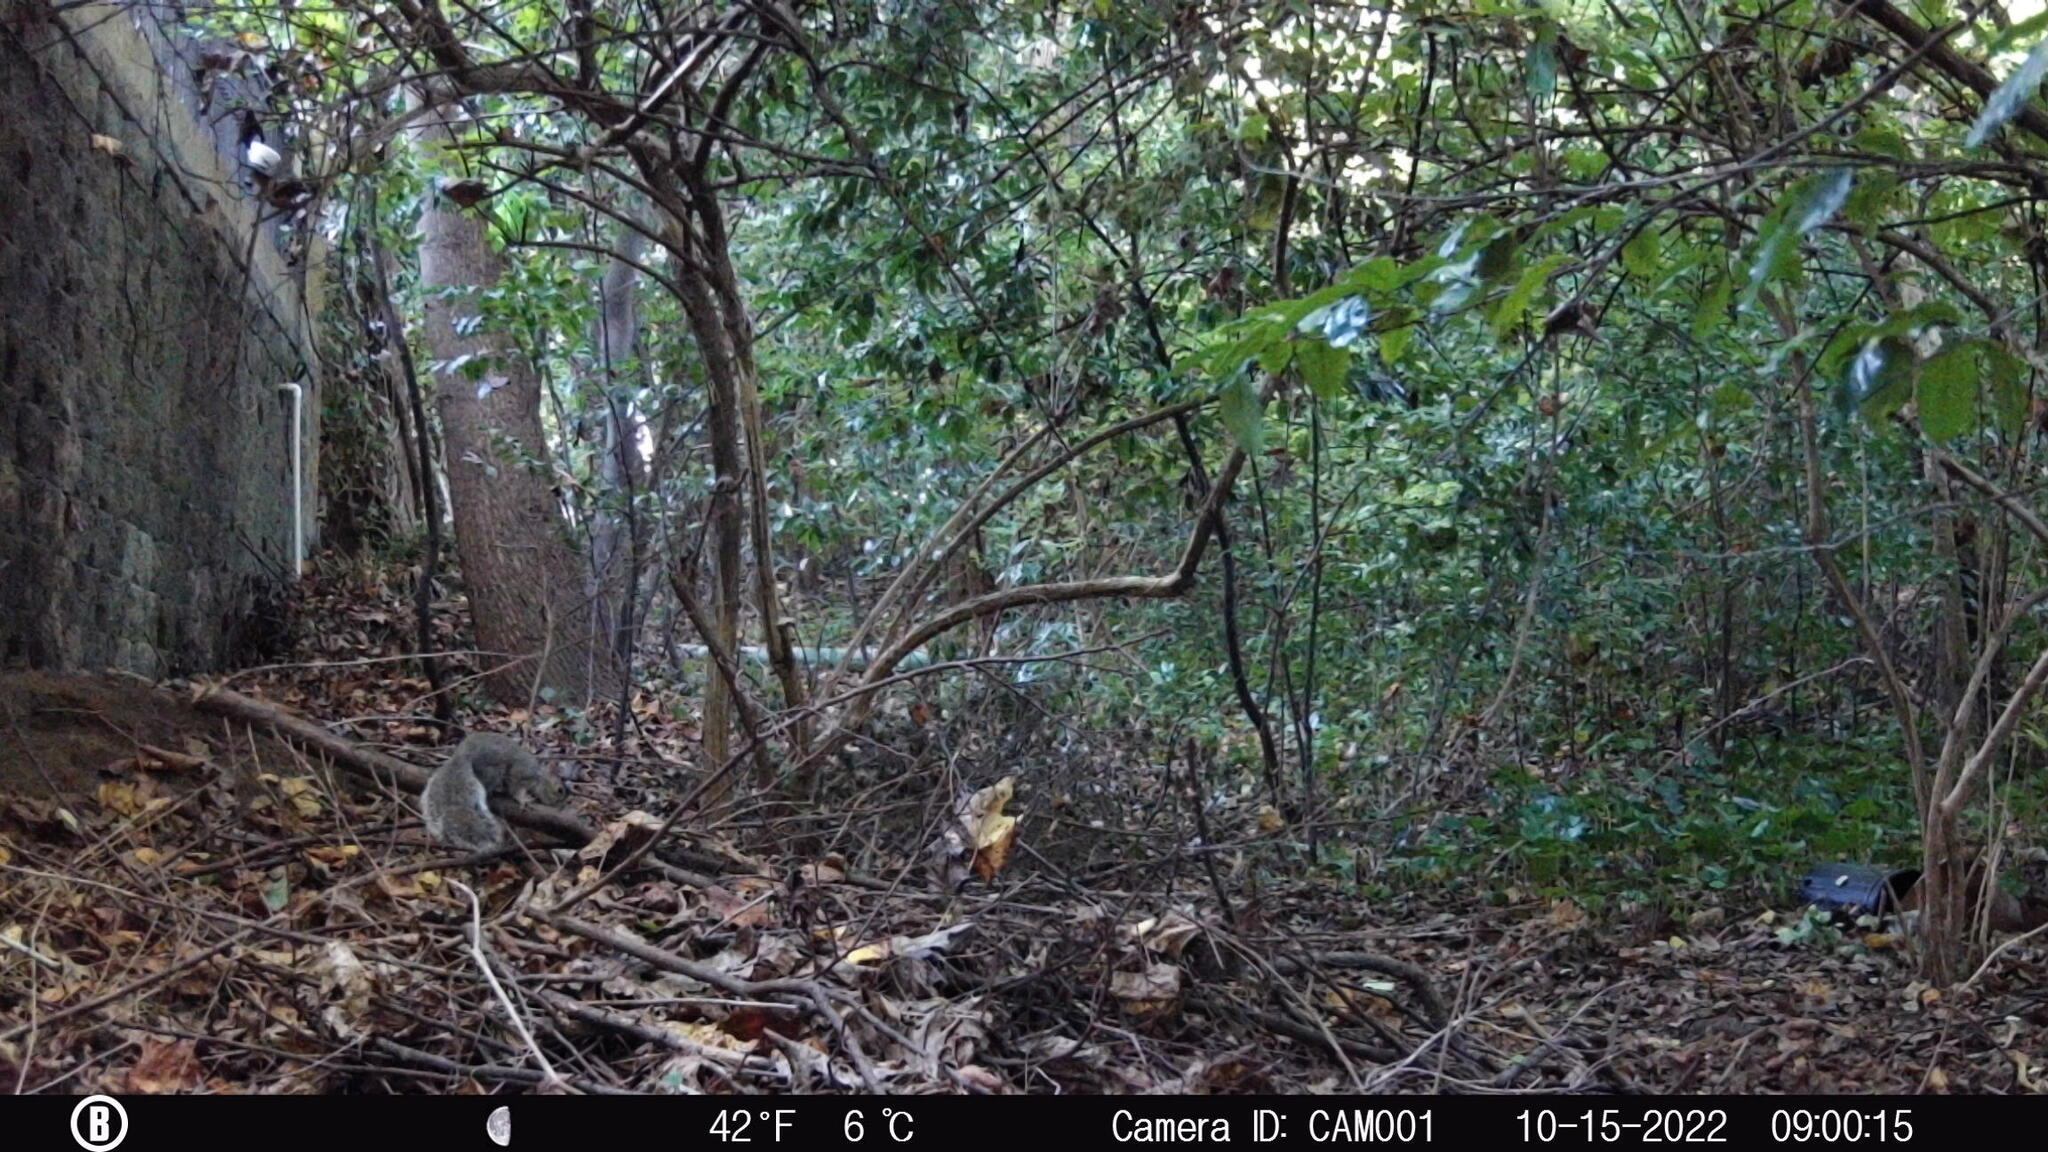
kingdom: Animalia
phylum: Chordata
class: Mammalia
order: Rodentia
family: Sciuridae
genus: Sciurus
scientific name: Sciurus carolinensis
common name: Eastern gray squirrel
